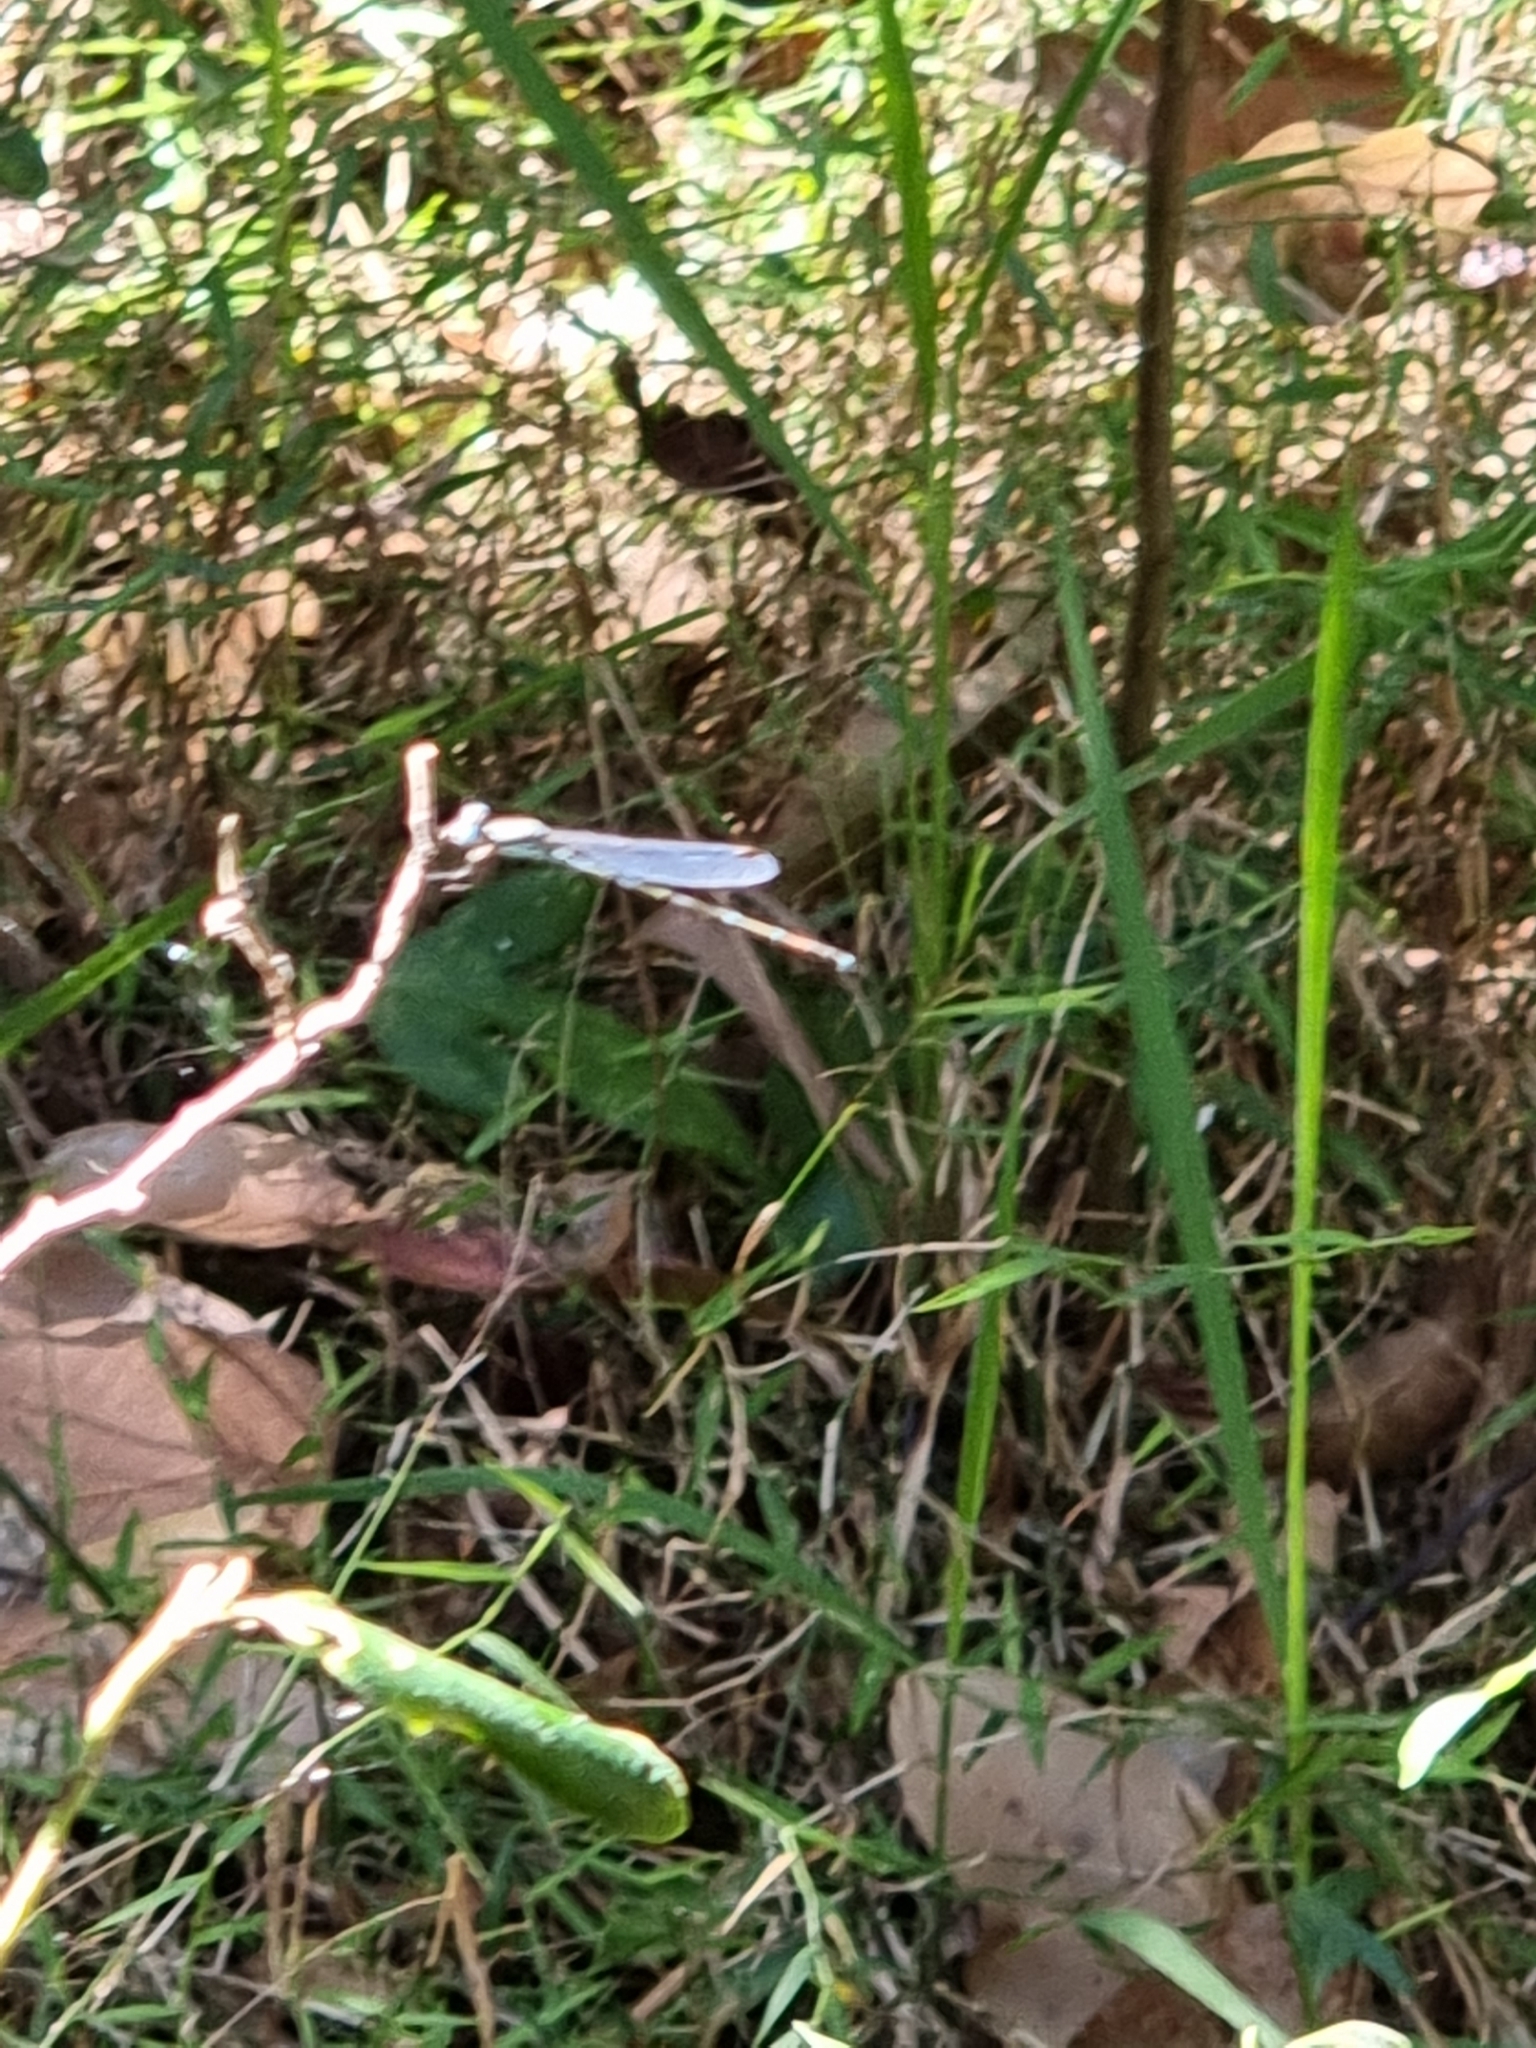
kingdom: Animalia
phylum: Arthropoda
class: Insecta
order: Odonata
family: Lestidae
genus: Austrolestes
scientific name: Austrolestes leda
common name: Wandering ringtail
